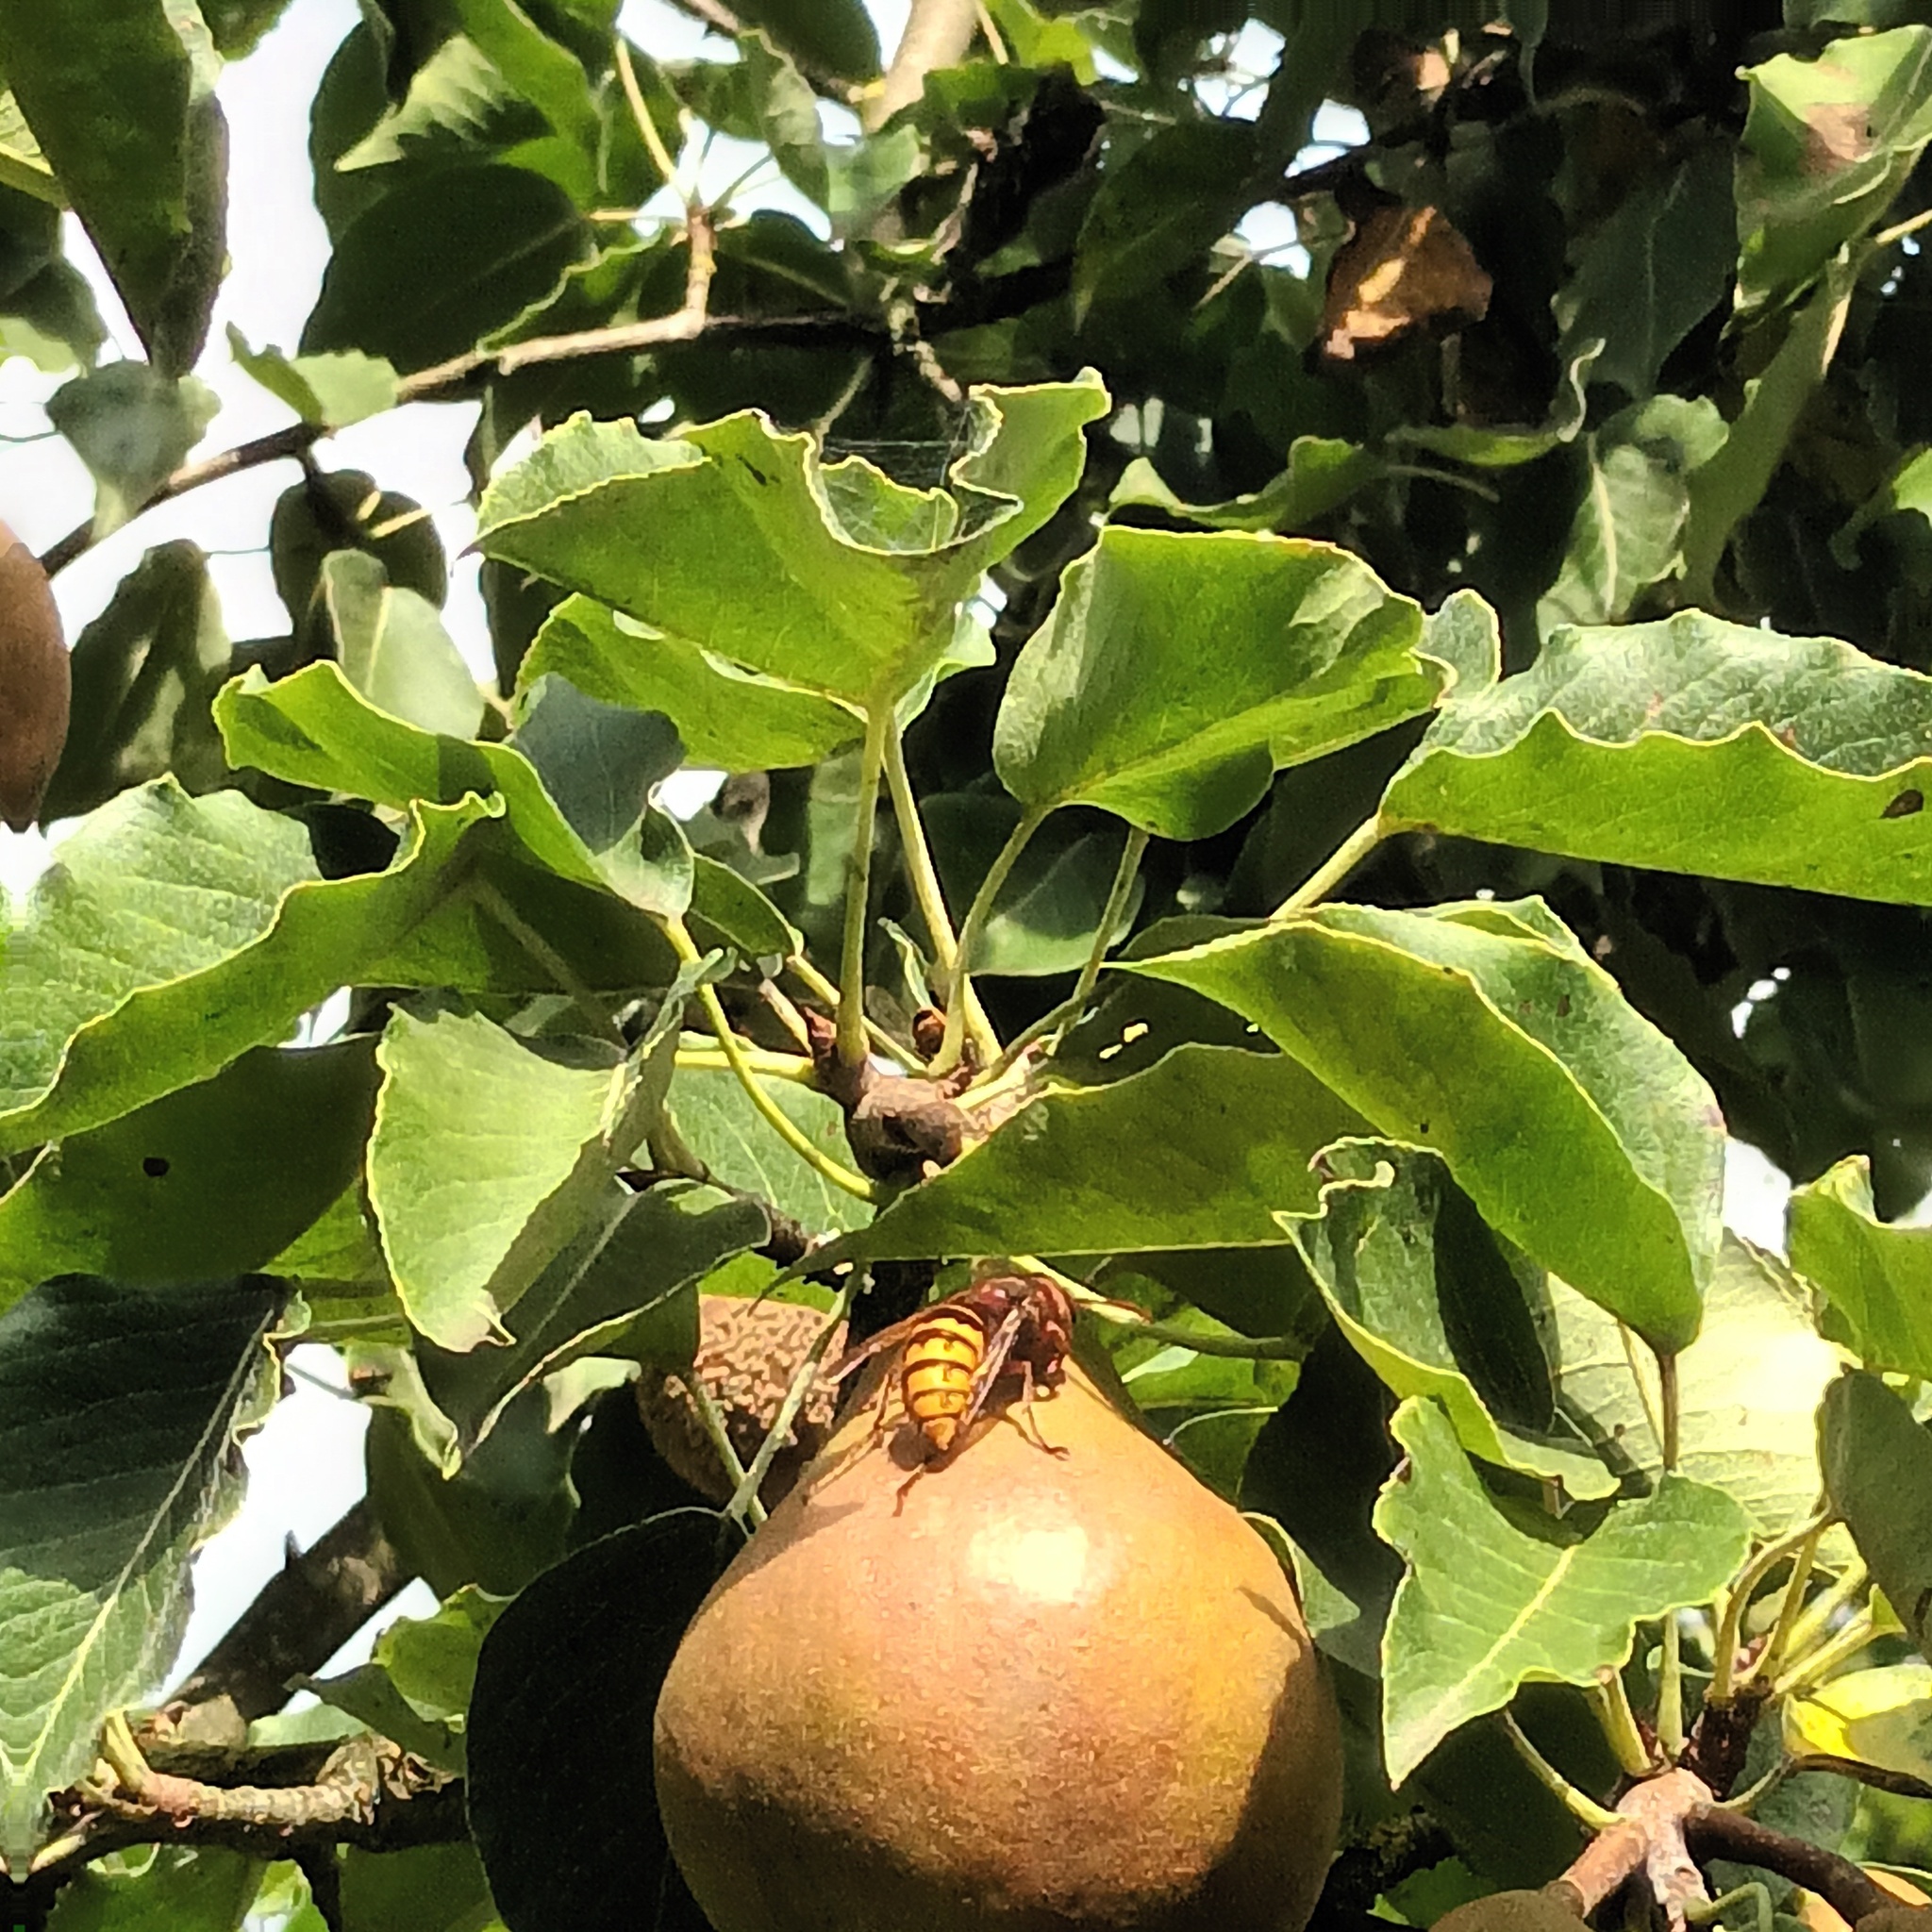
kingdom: Animalia
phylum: Arthropoda
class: Insecta
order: Hymenoptera
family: Vespidae
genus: Vespa
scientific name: Vespa crabro
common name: Hornet
